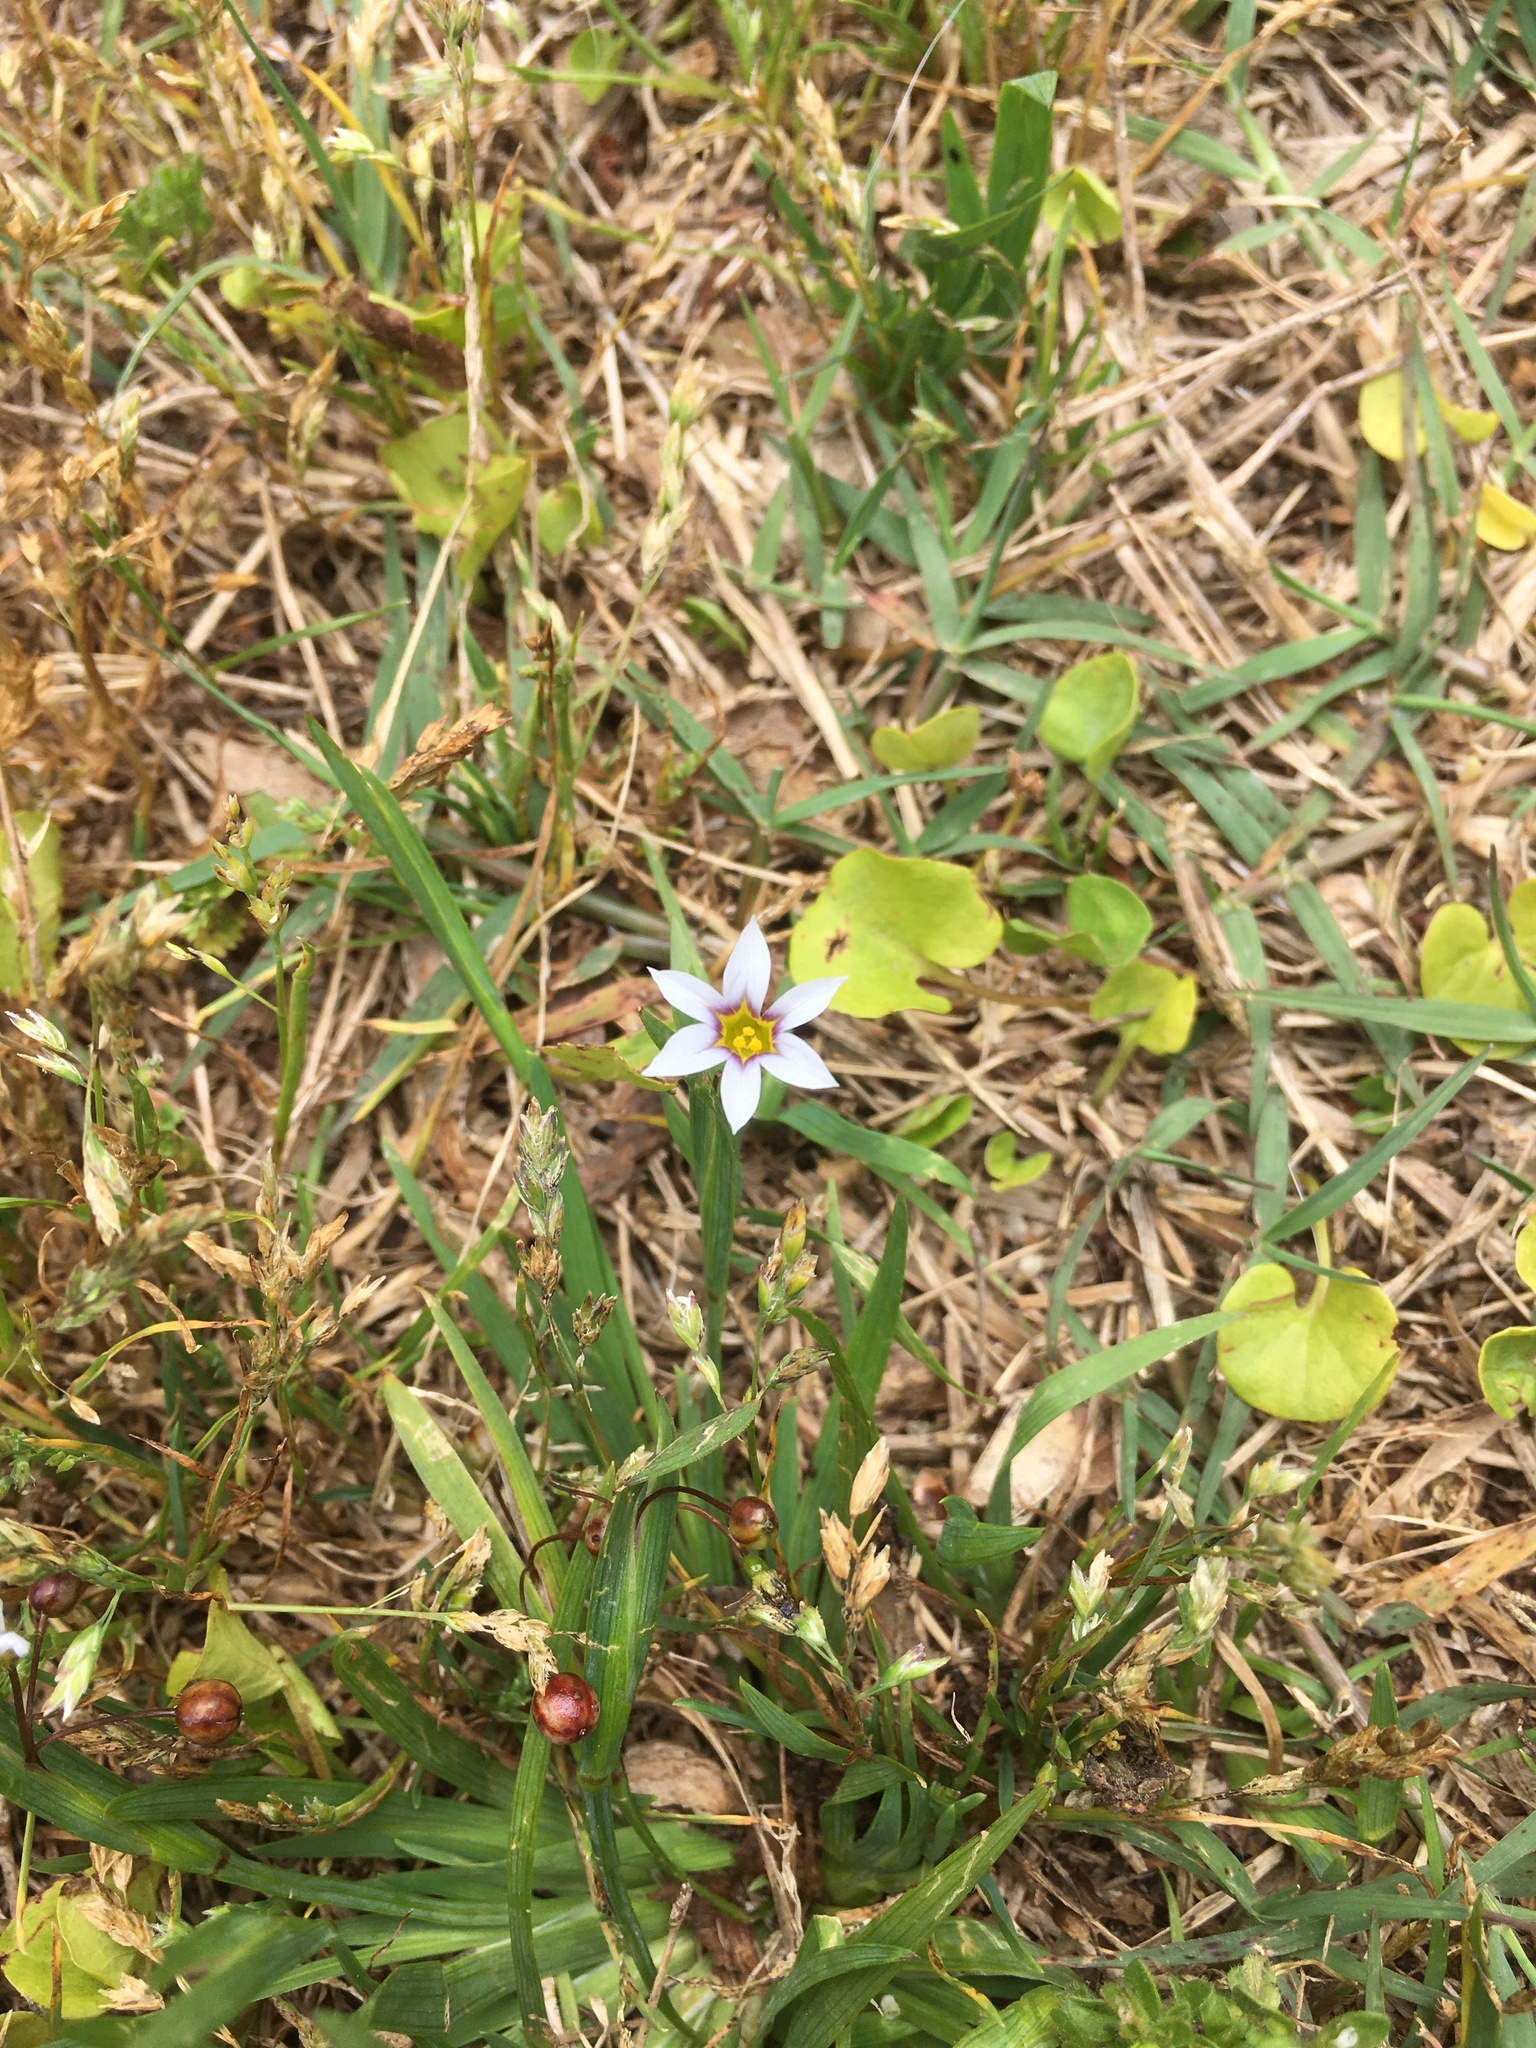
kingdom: Plantae
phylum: Tracheophyta
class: Liliopsida
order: Asparagales
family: Iridaceae
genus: Sisyrinchium
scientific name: Sisyrinchium micranthum
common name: Bermuda pigroot
